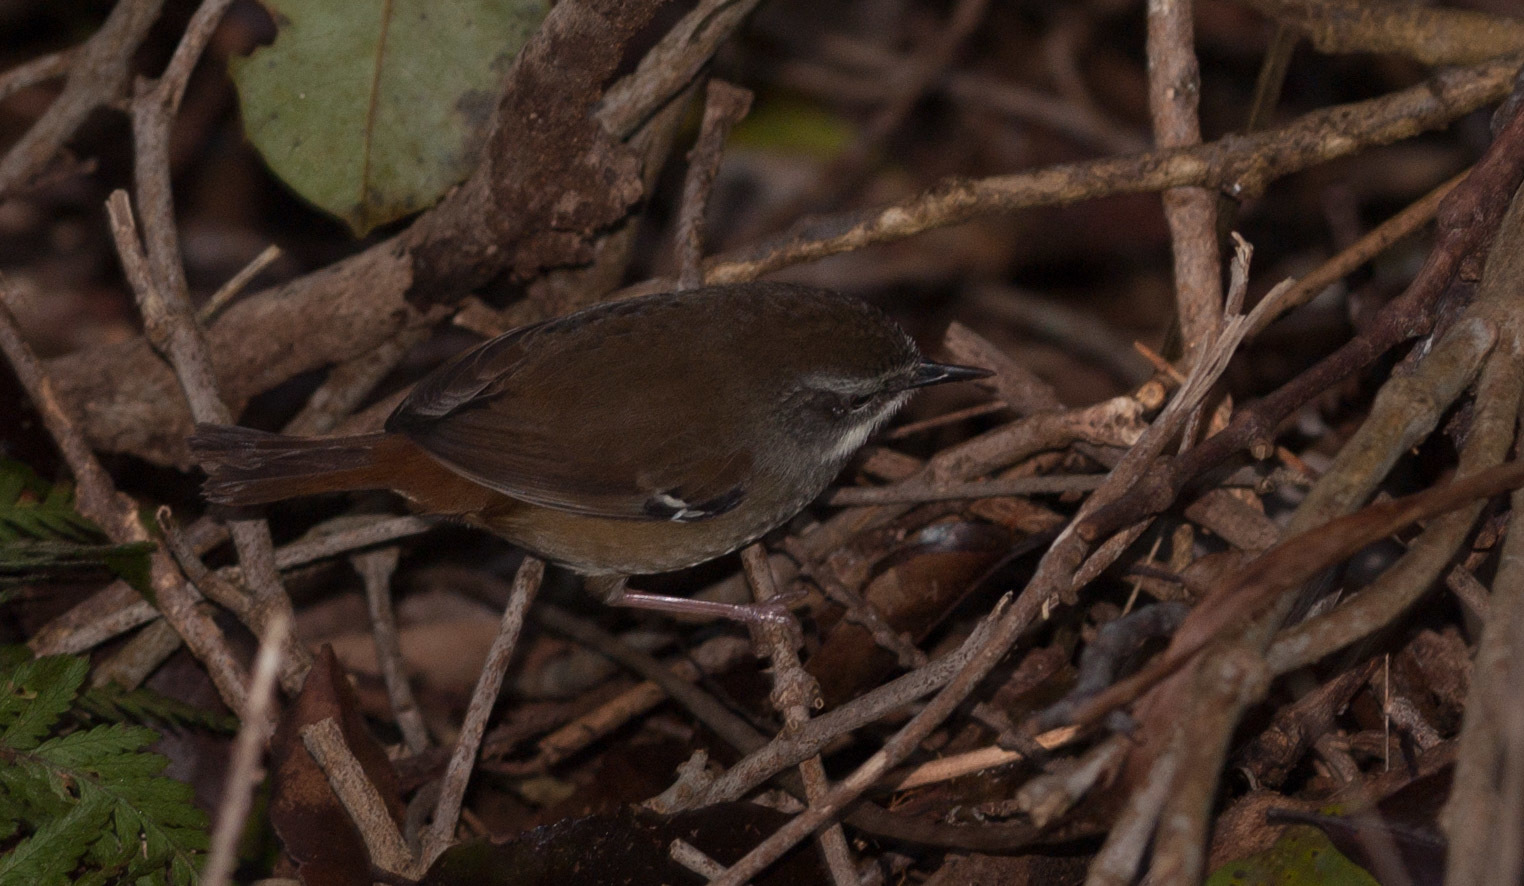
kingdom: Animalia
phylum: Chordata
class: Aves
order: Passeriformes
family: Acanthizidae
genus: Sericornis
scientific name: Sericornis frontalis
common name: White-browed scrubwren
